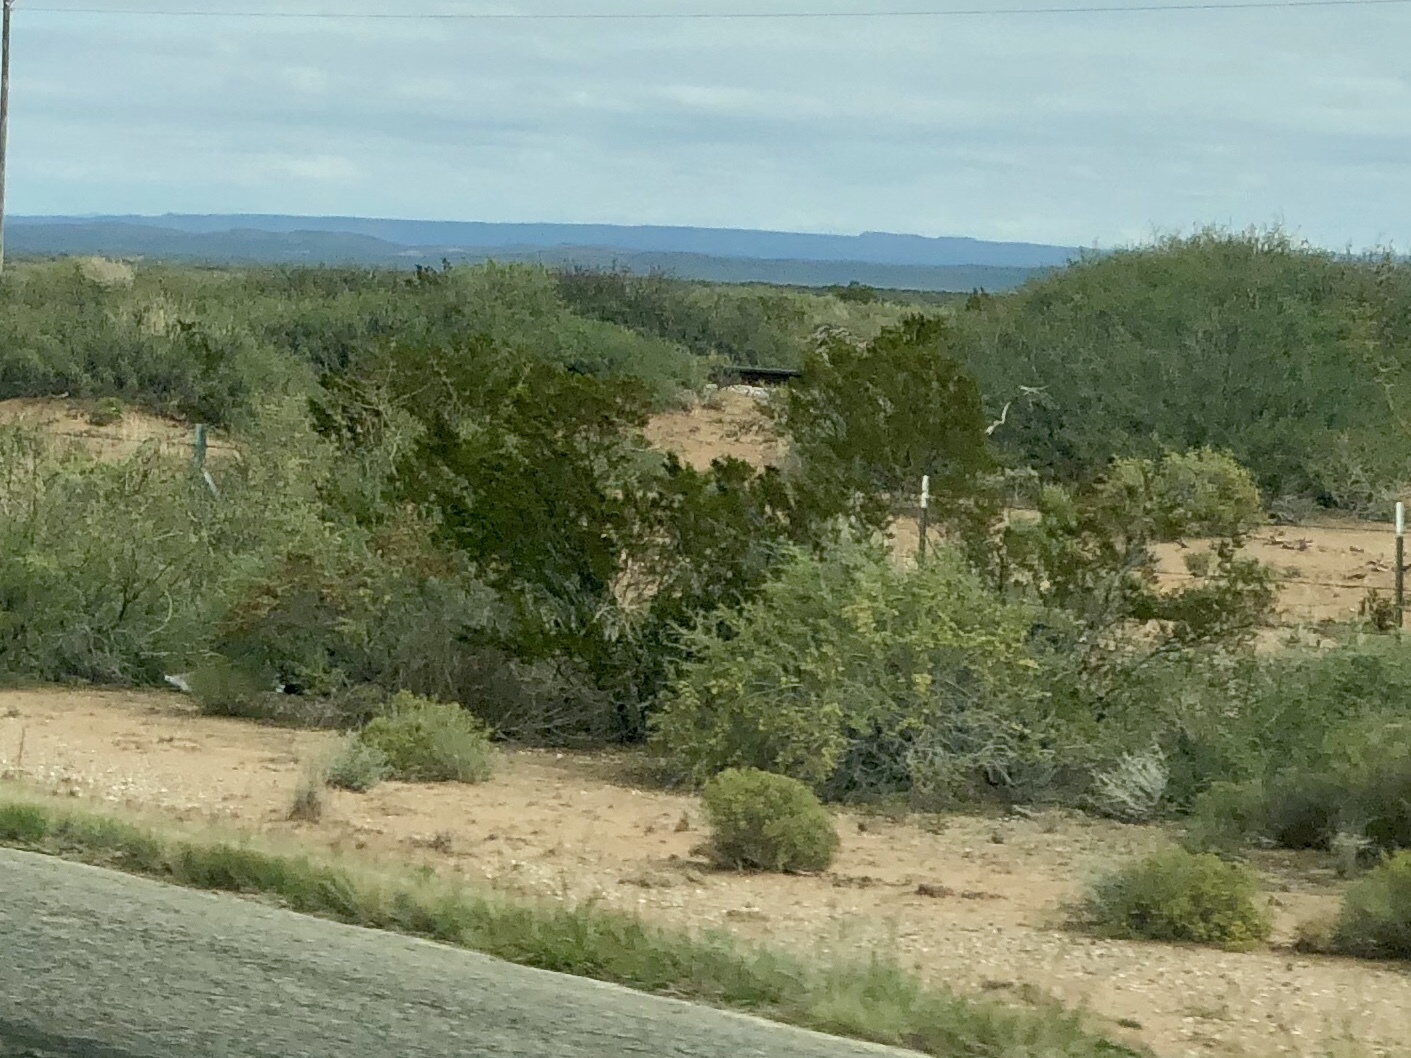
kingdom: Plantae
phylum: Tracheophyta
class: Magnoliopsida
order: Zygophyllales
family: Zygophyllaceae
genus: Larrea
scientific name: Larrea tridentata
